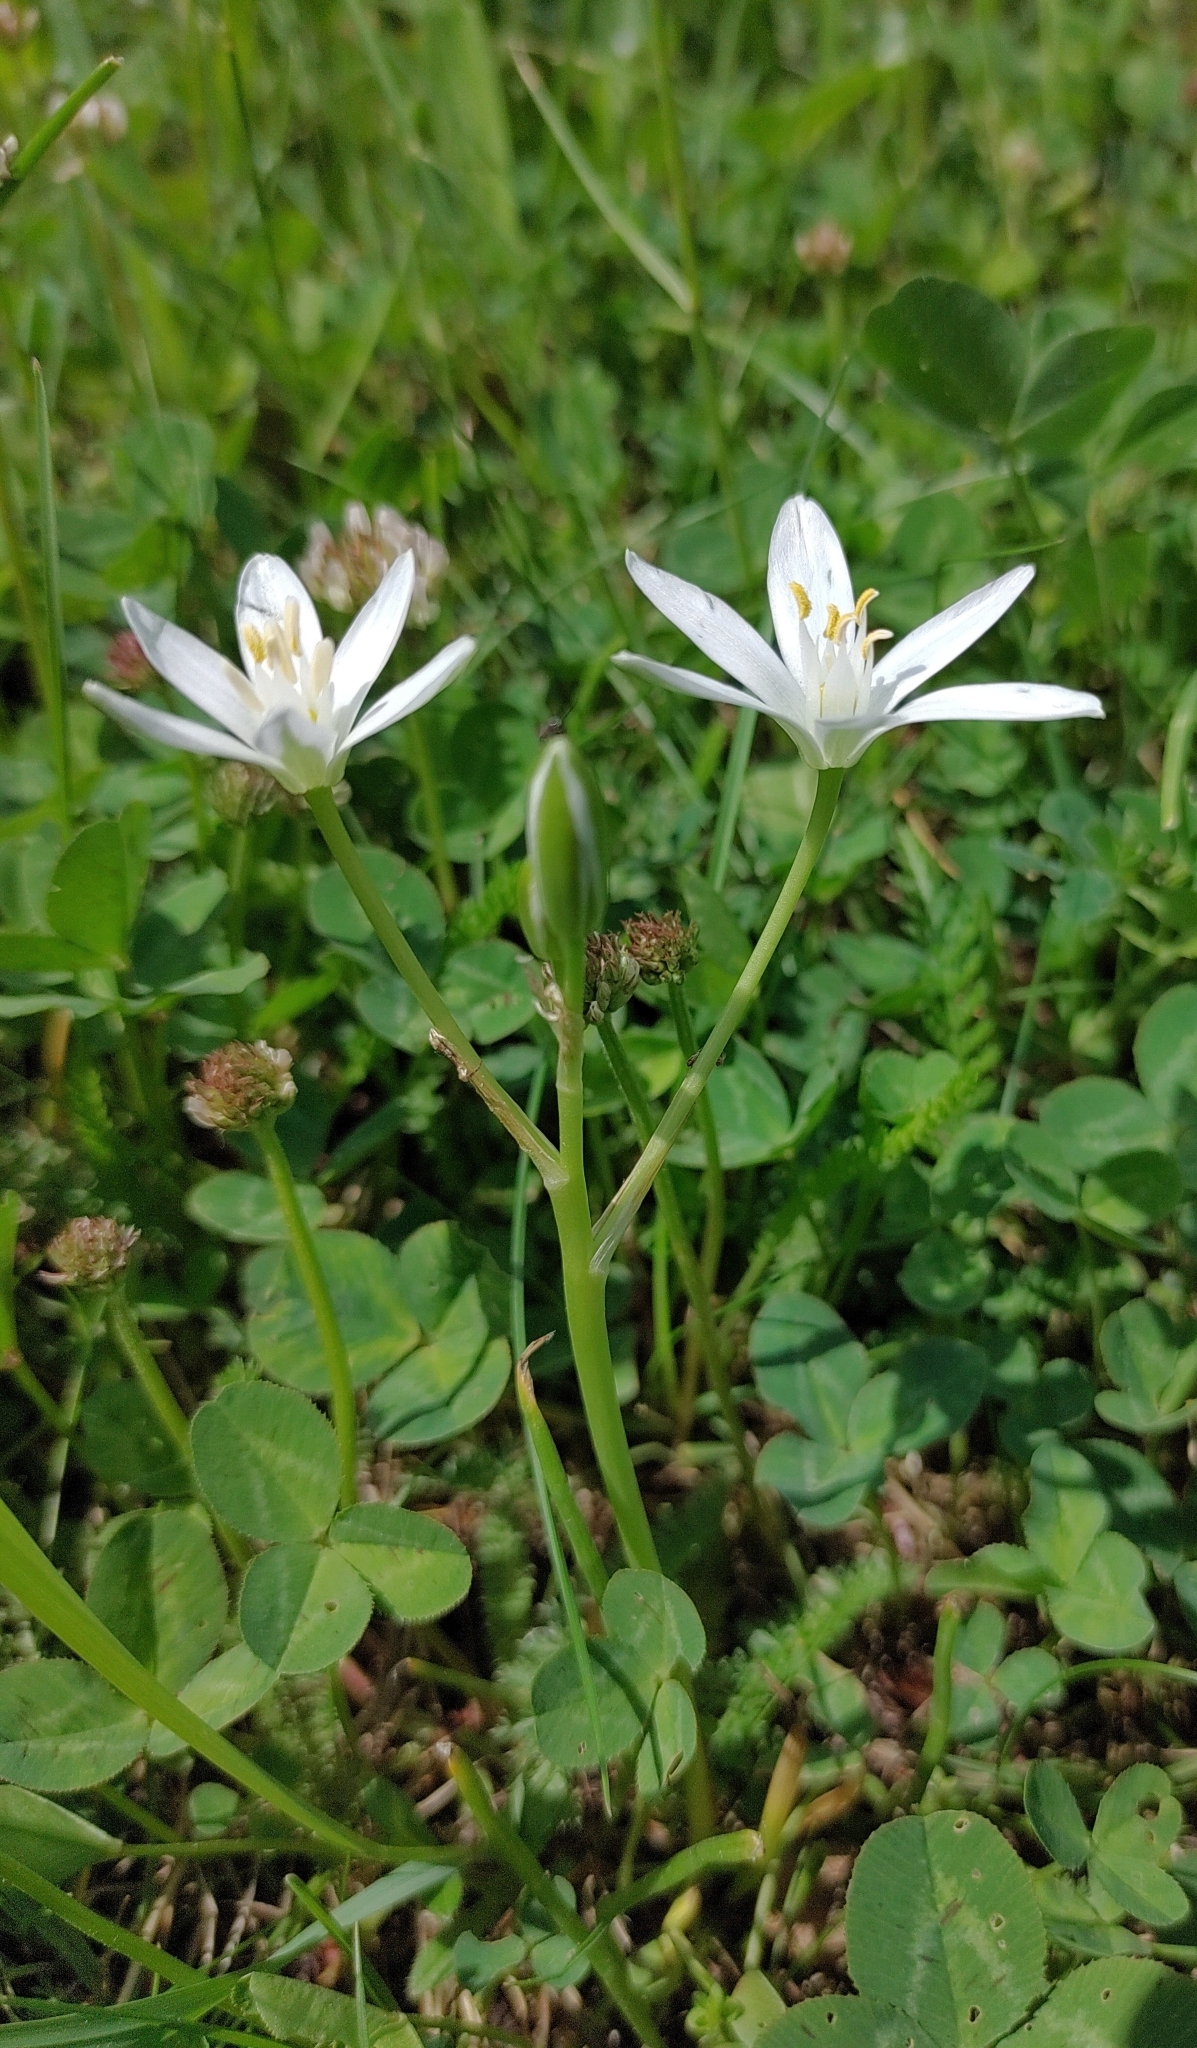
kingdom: Plantae
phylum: Tracheophyta
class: Liliopsida
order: Asparagales
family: Asparagaceae
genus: Ornithogalum
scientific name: Ornithogalum umbellatum
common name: Garden star-of-bethlehem
